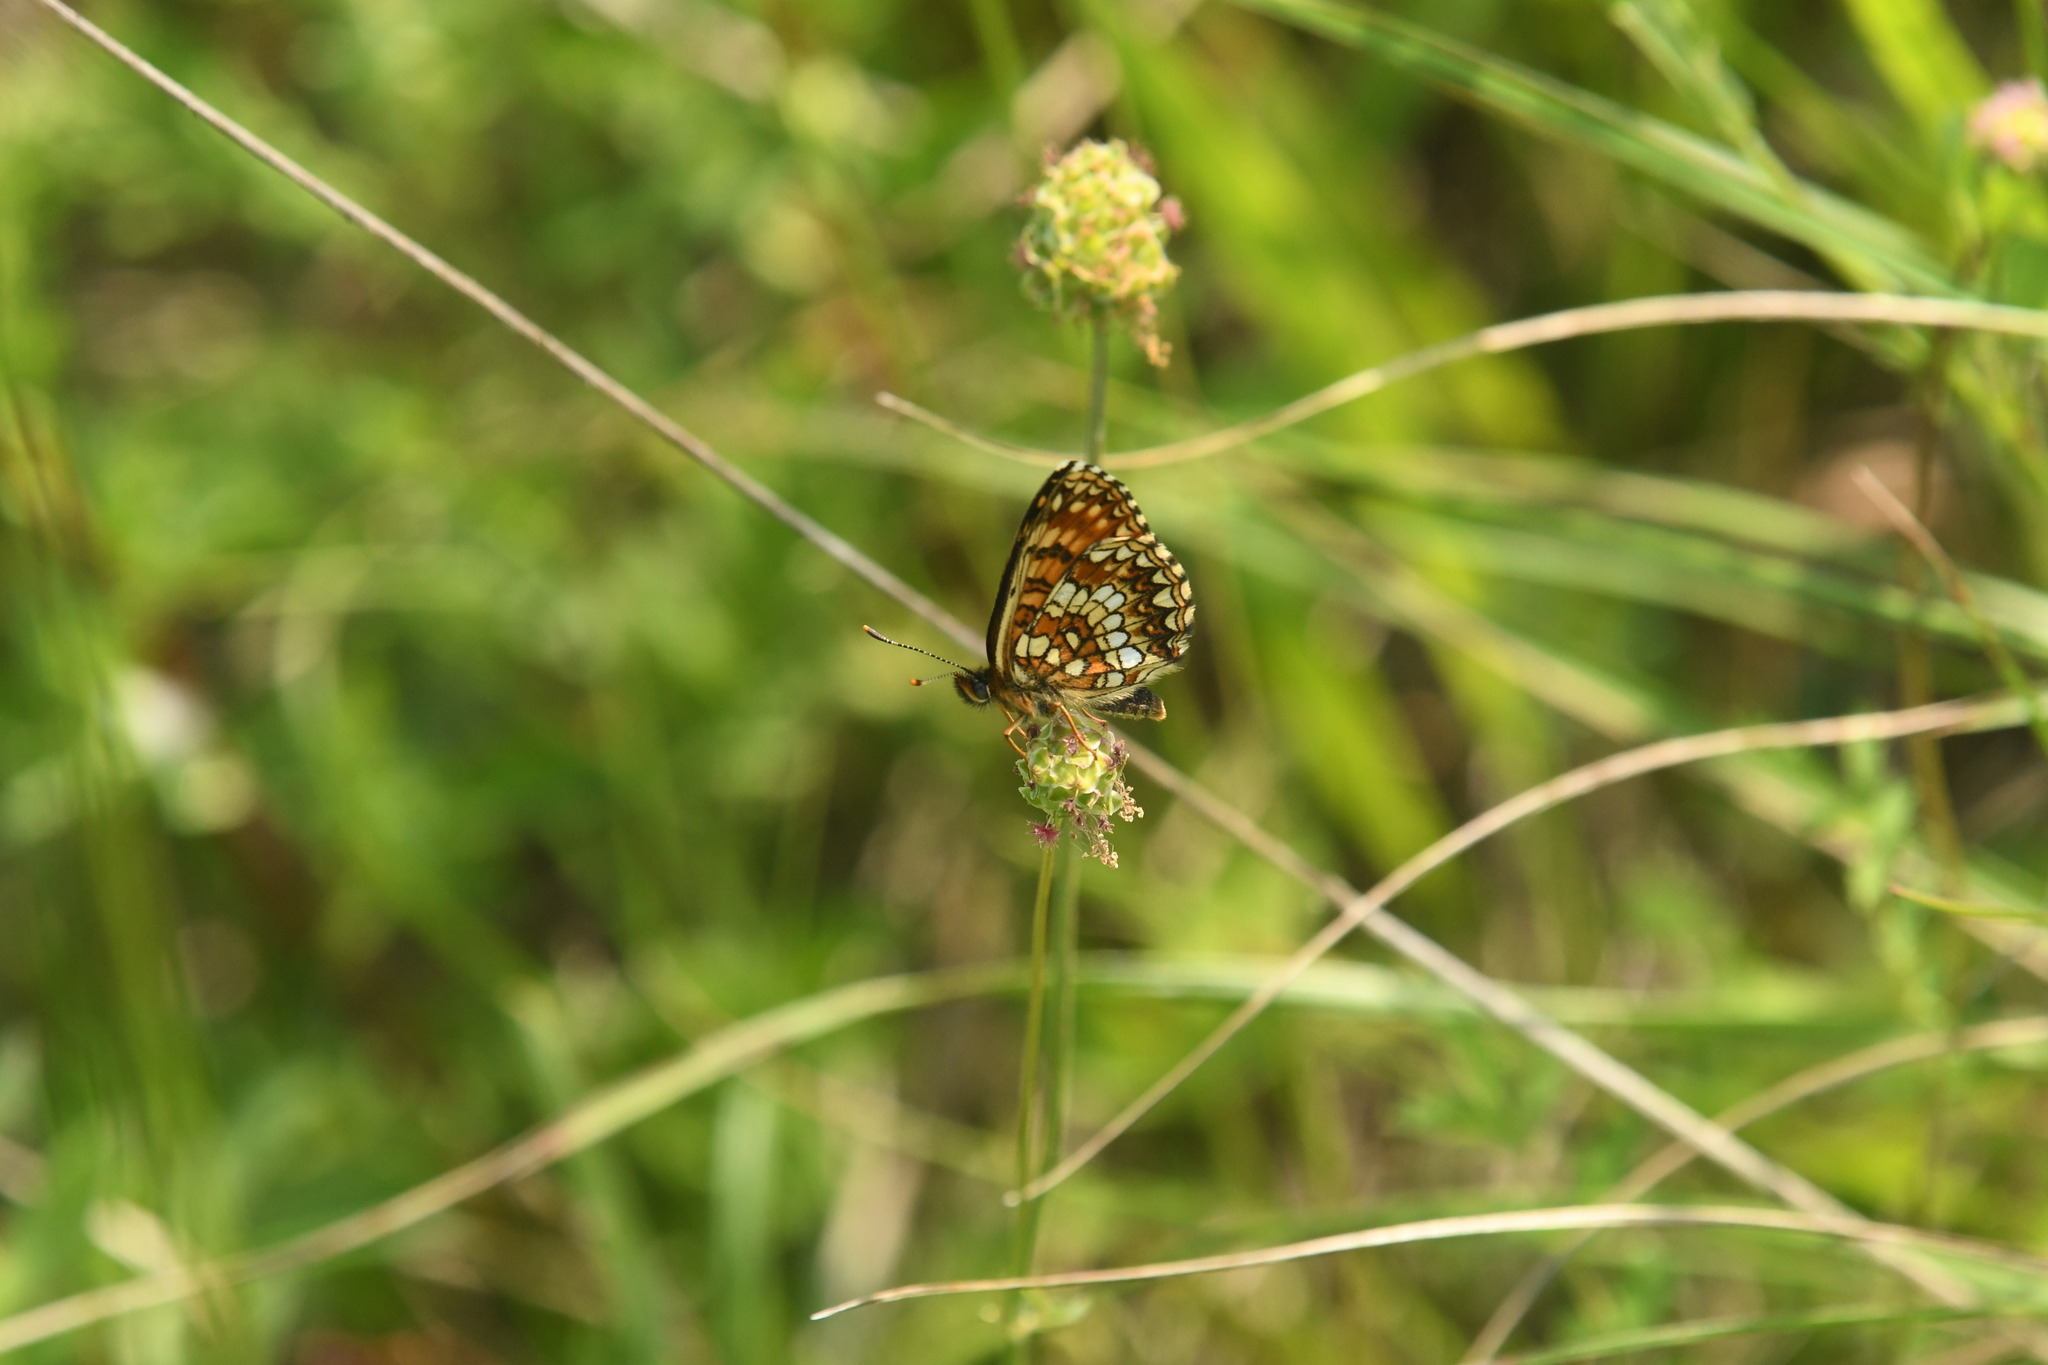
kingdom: Animalia
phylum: Arthropoda
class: Insecta
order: Lepidoptera
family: Nymphalidae
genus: Melitaea
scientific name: Melitaea diamina
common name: False heath fritillary
